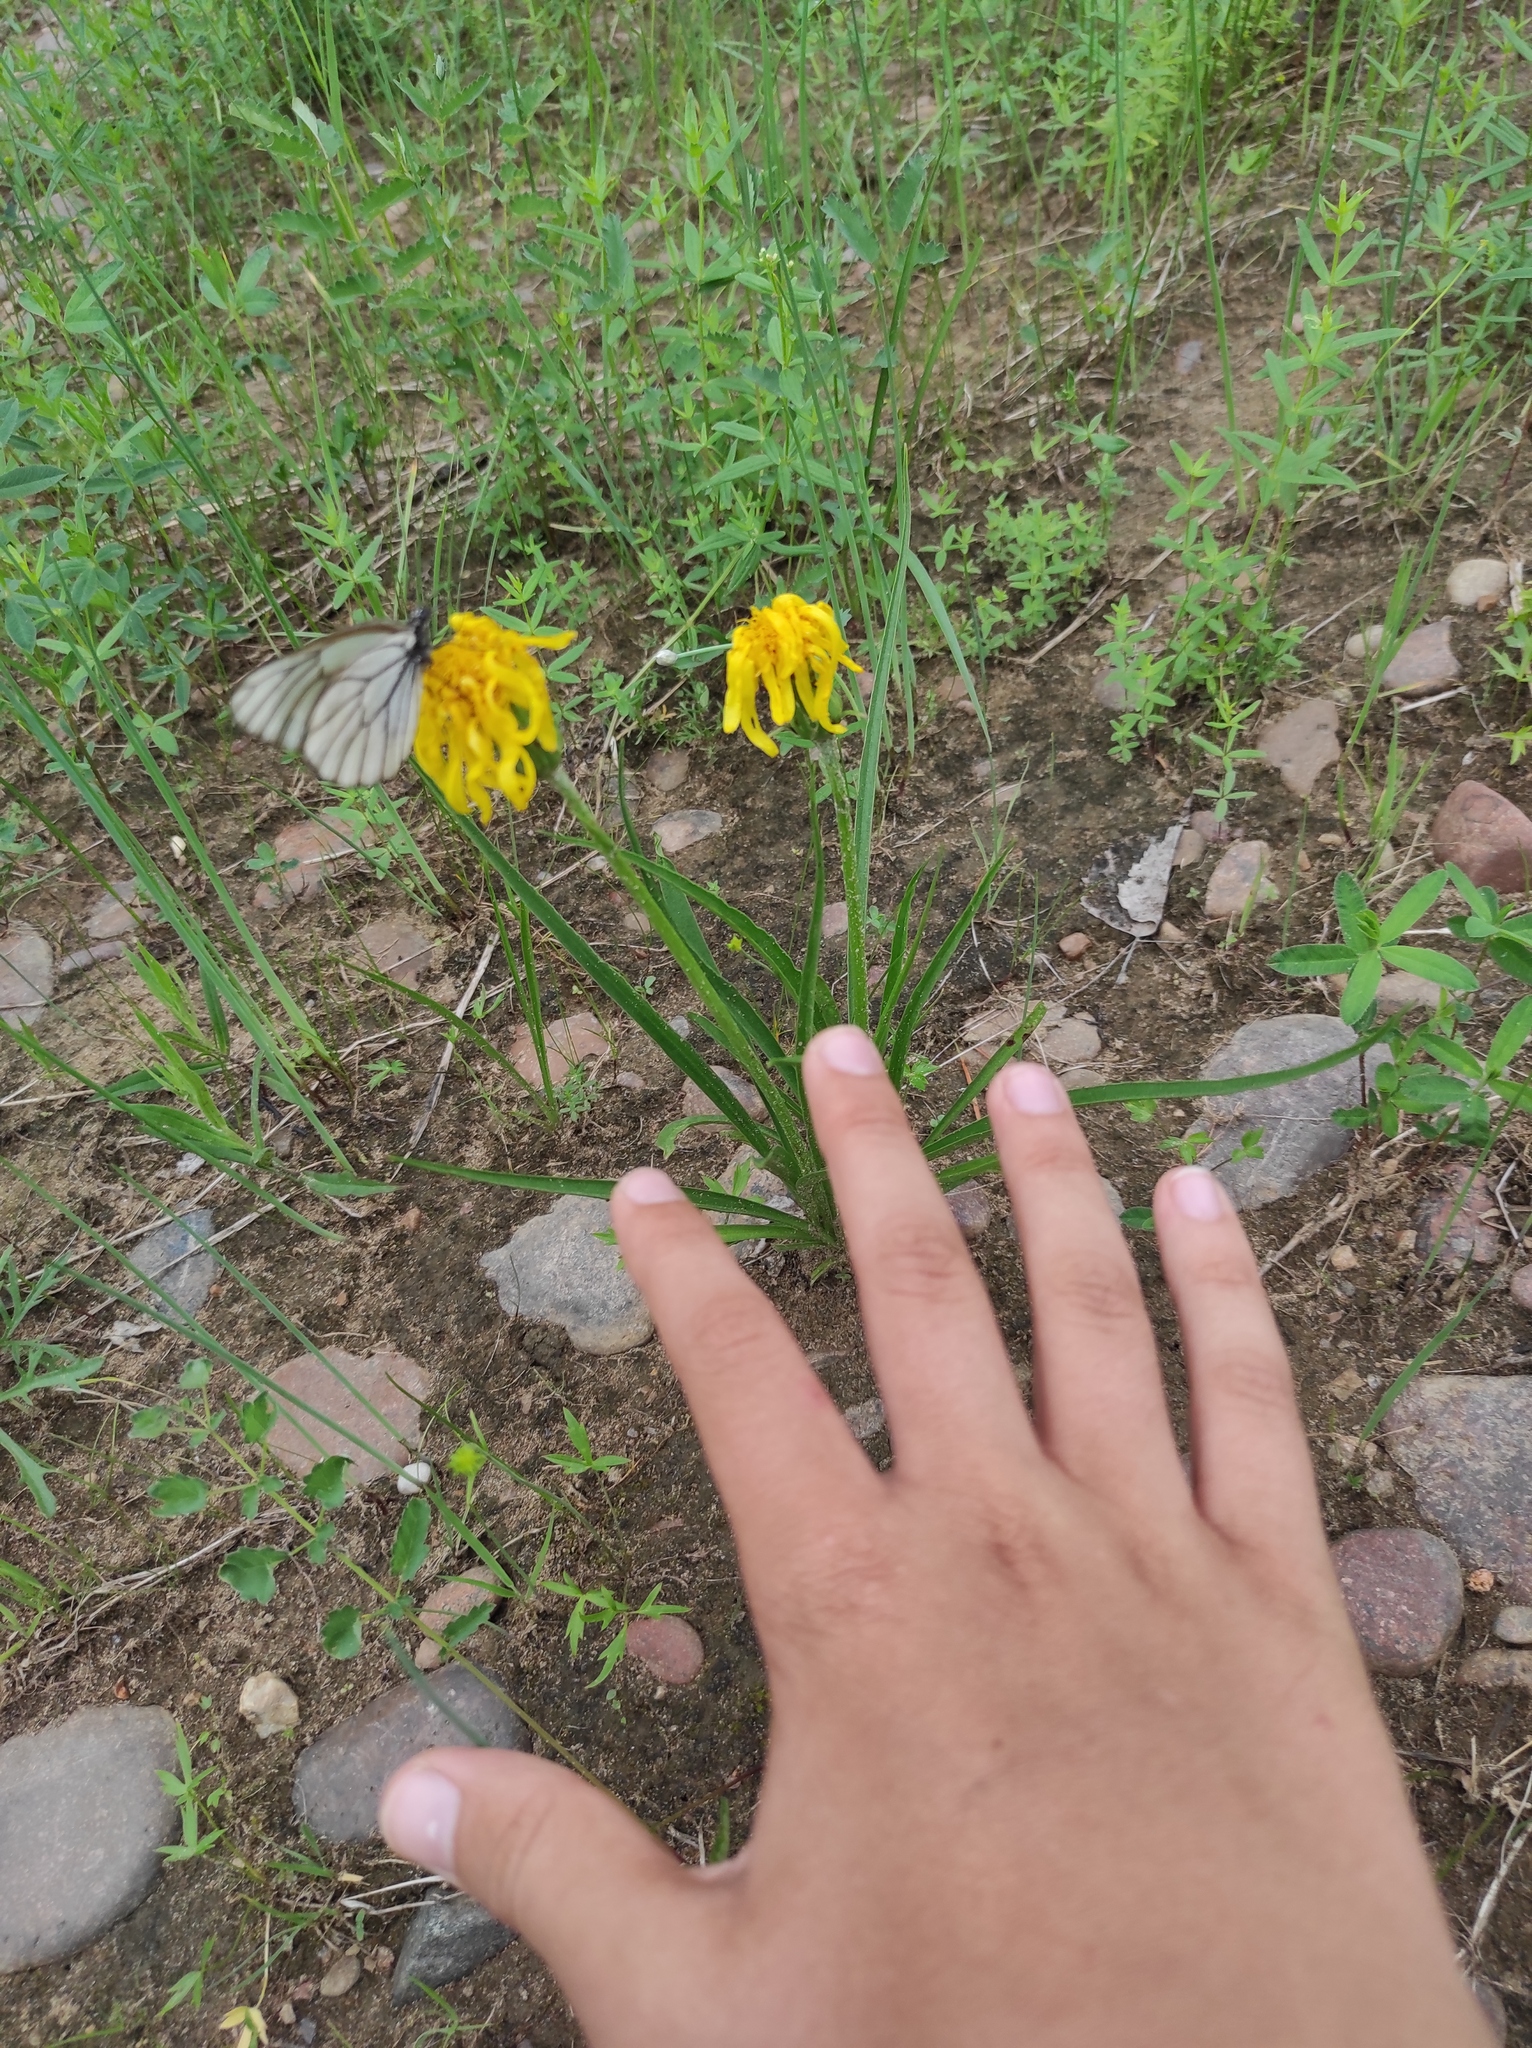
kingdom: Plantae
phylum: Tracheophyta
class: Magnoliopsida
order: Asterales
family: Asteraceae
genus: Scorzonera
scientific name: Scorzonera radiata
